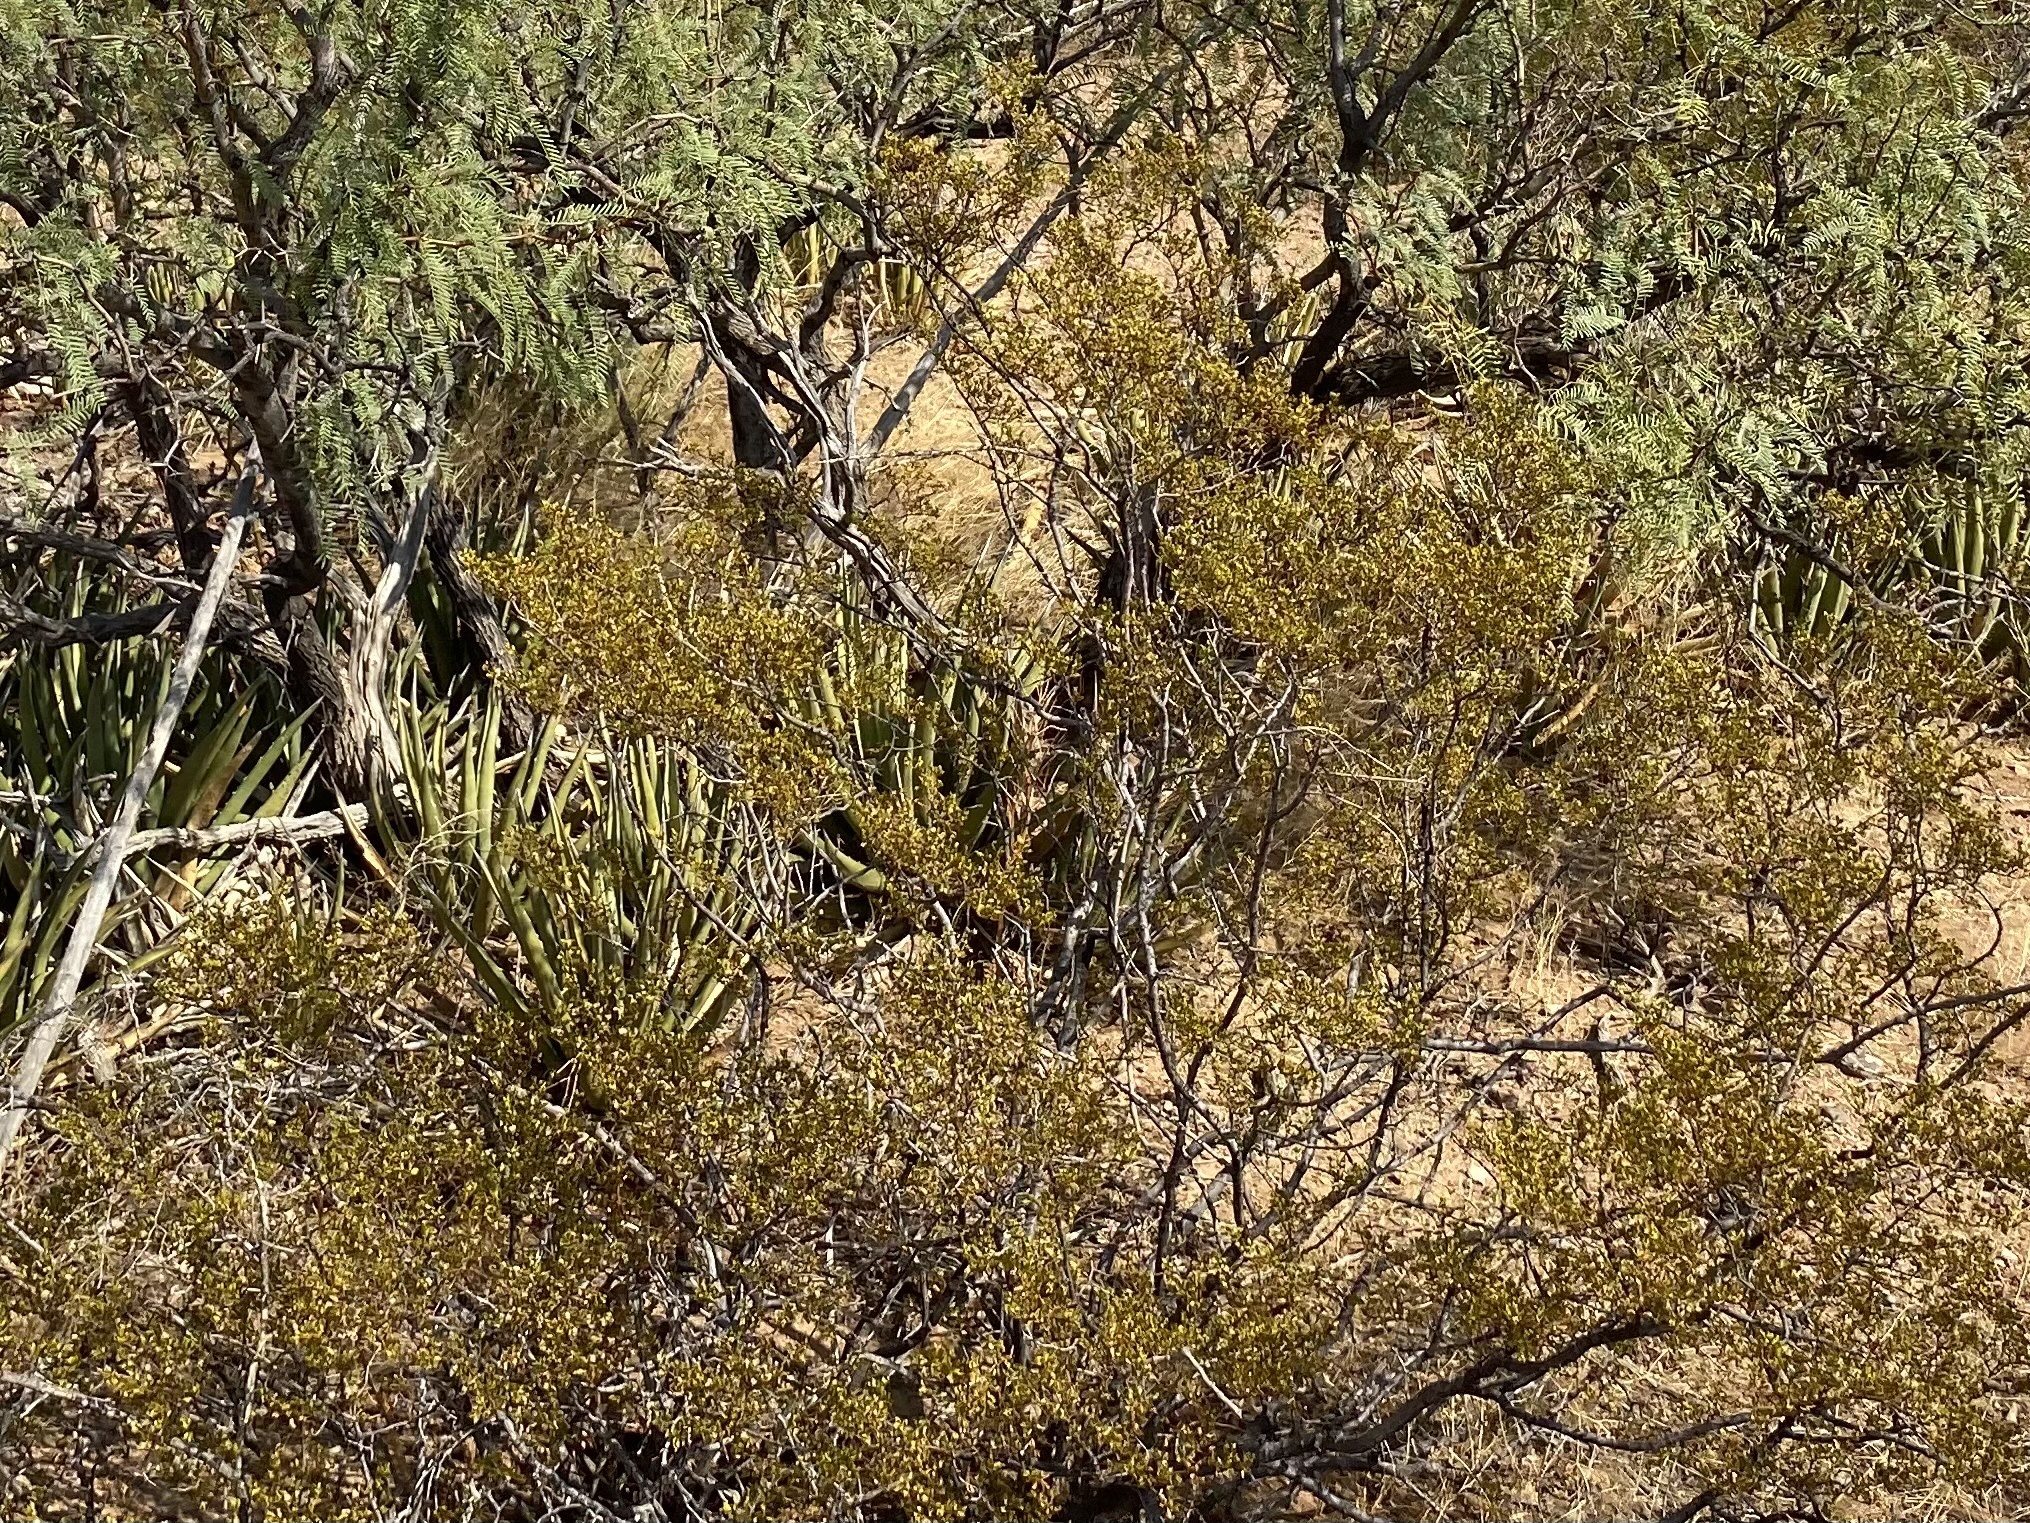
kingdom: Plantae
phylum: Tracheophyta
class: Magnoliopsida
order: Zygophyllales
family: Zygophyllaceae
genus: Larrea
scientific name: Larrea tridentata
